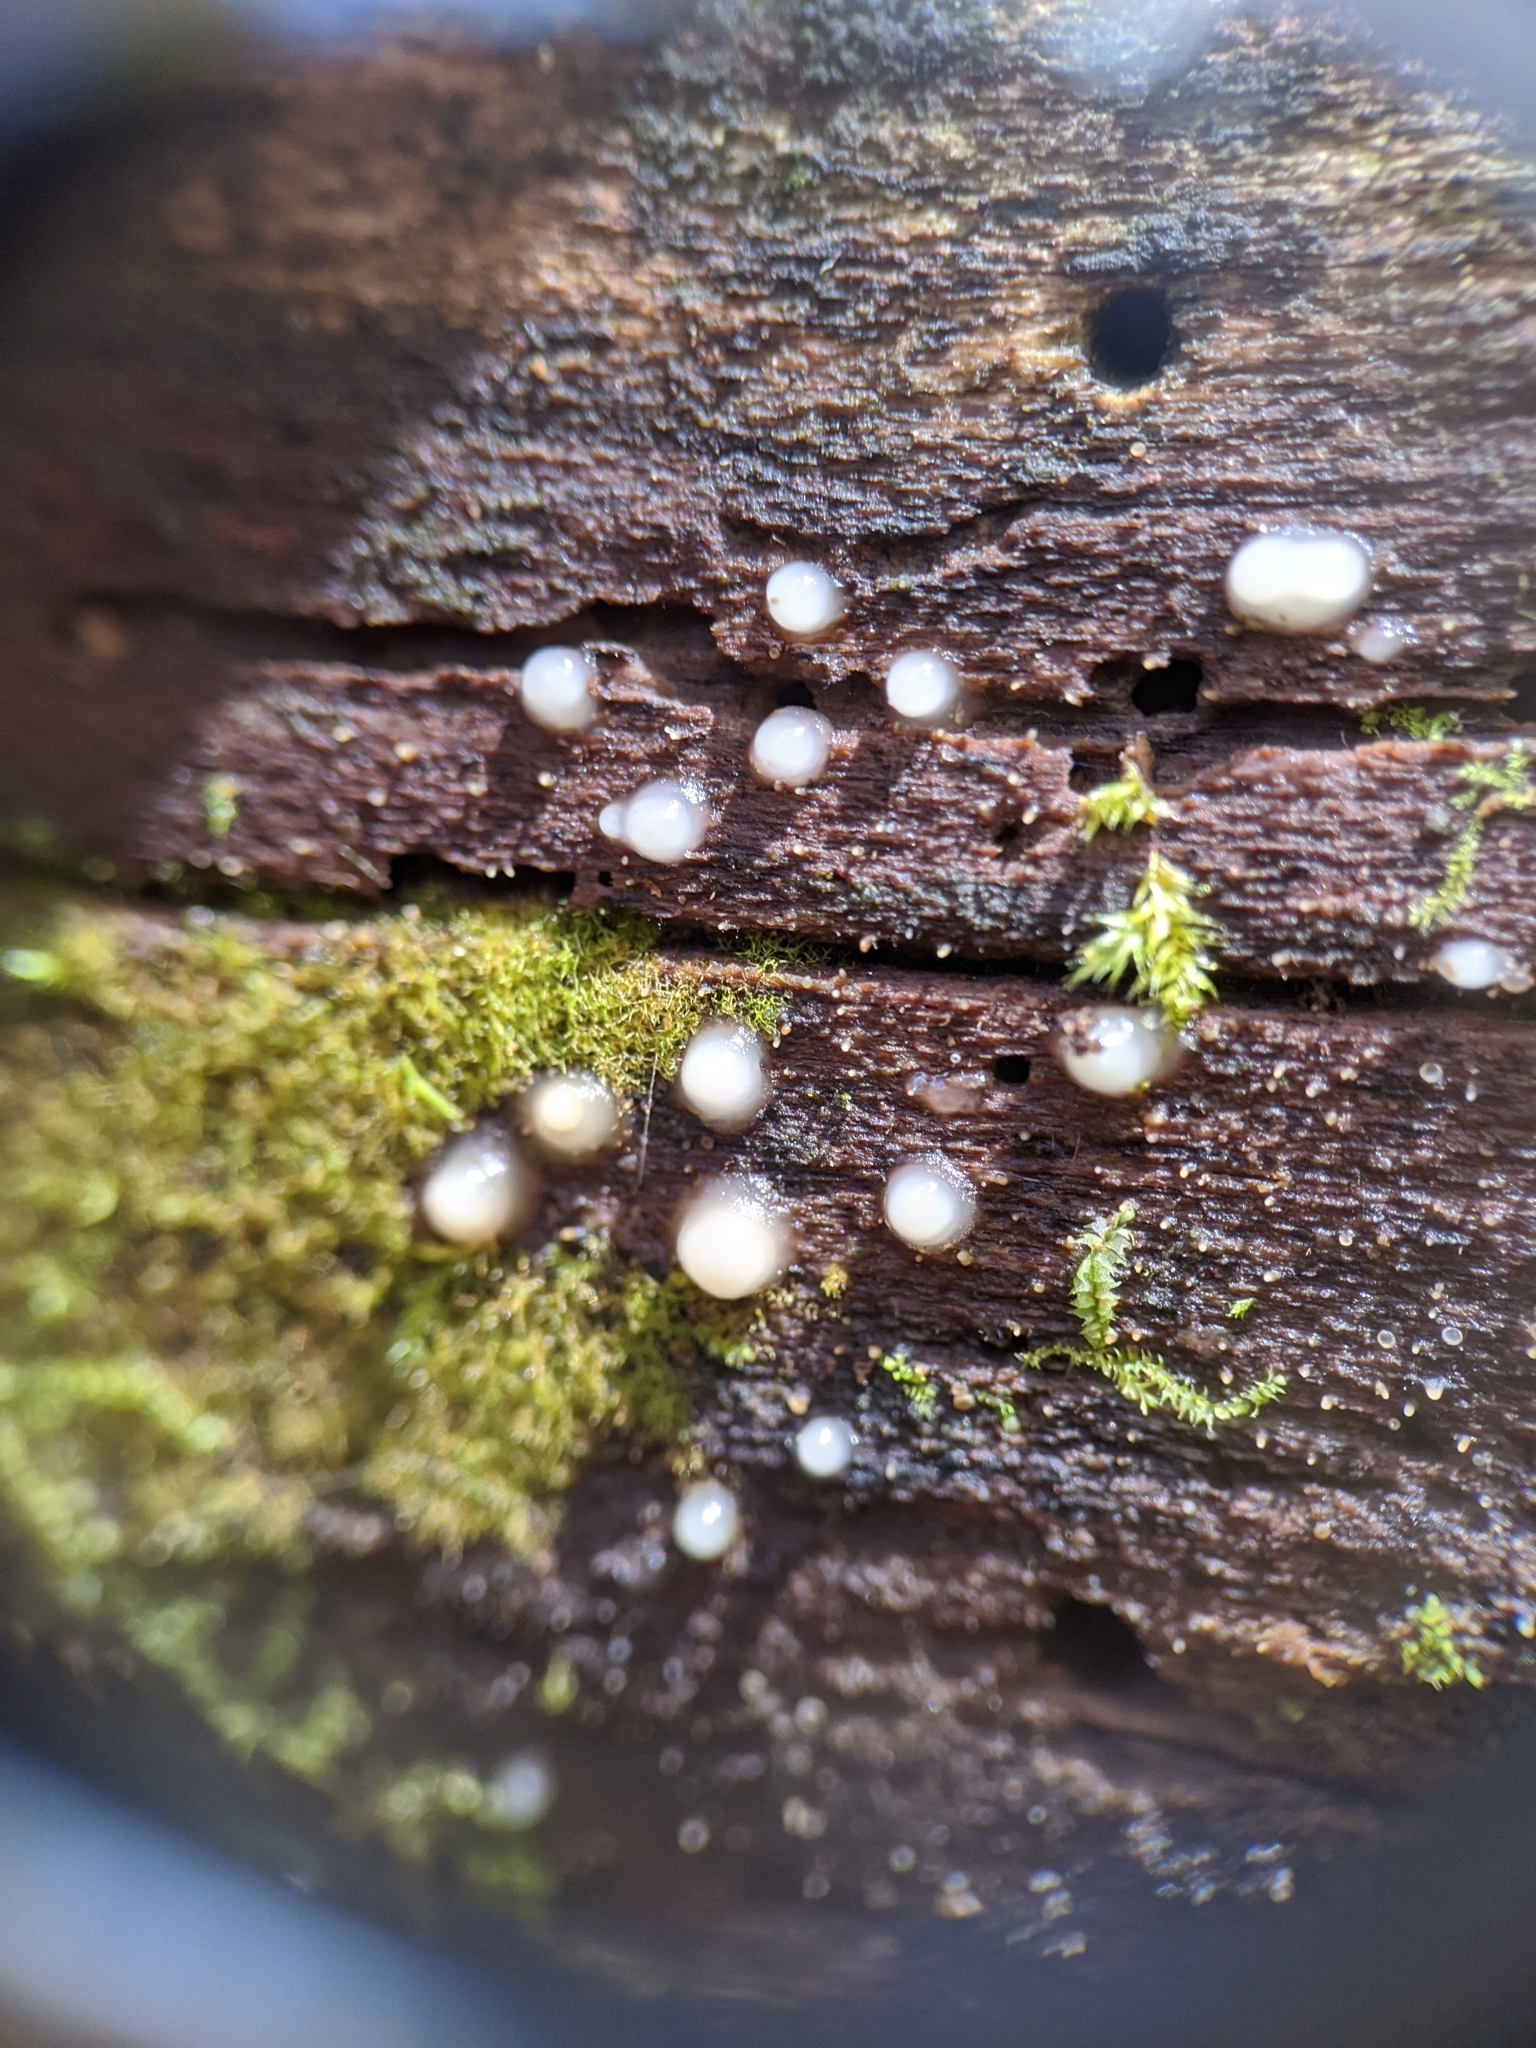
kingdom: Fungi
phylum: Basidiomycota
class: Atractiellomycetes
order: Atractiellales
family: Phleogenaceae
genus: Helicogloea
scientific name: Helicogloea compressa
